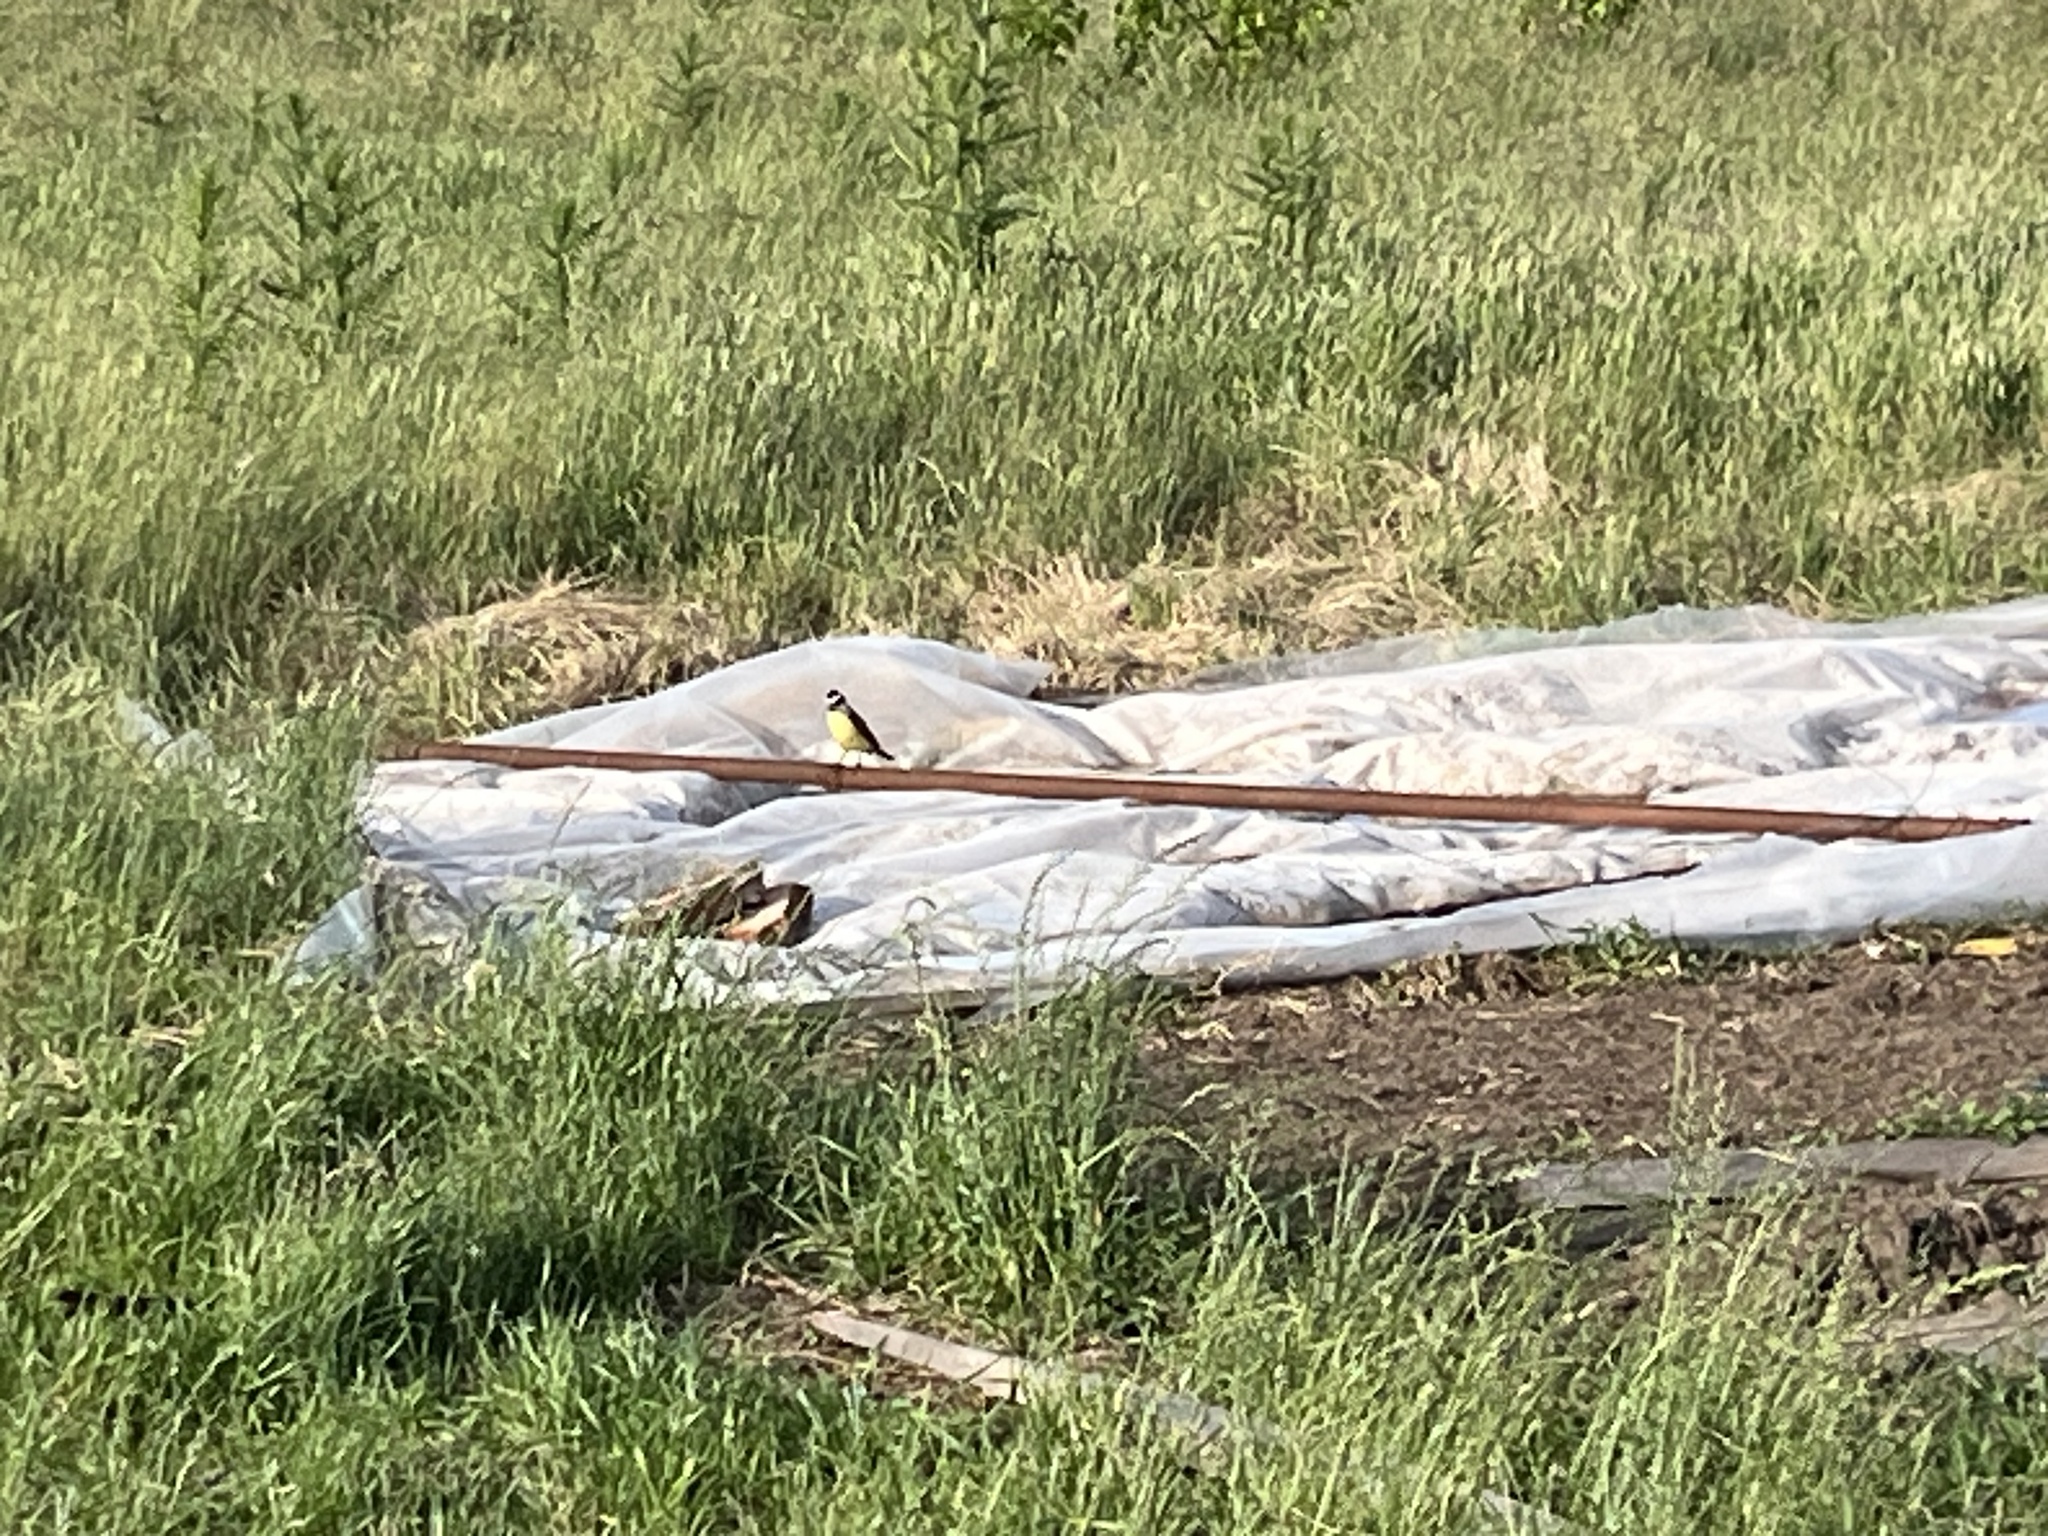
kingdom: Animalia
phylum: Chordata
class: Aves
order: Passeriformes
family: Tyrannidae
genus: Pitangus
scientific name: Pitangus sulphuratus
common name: Great kiskadee
